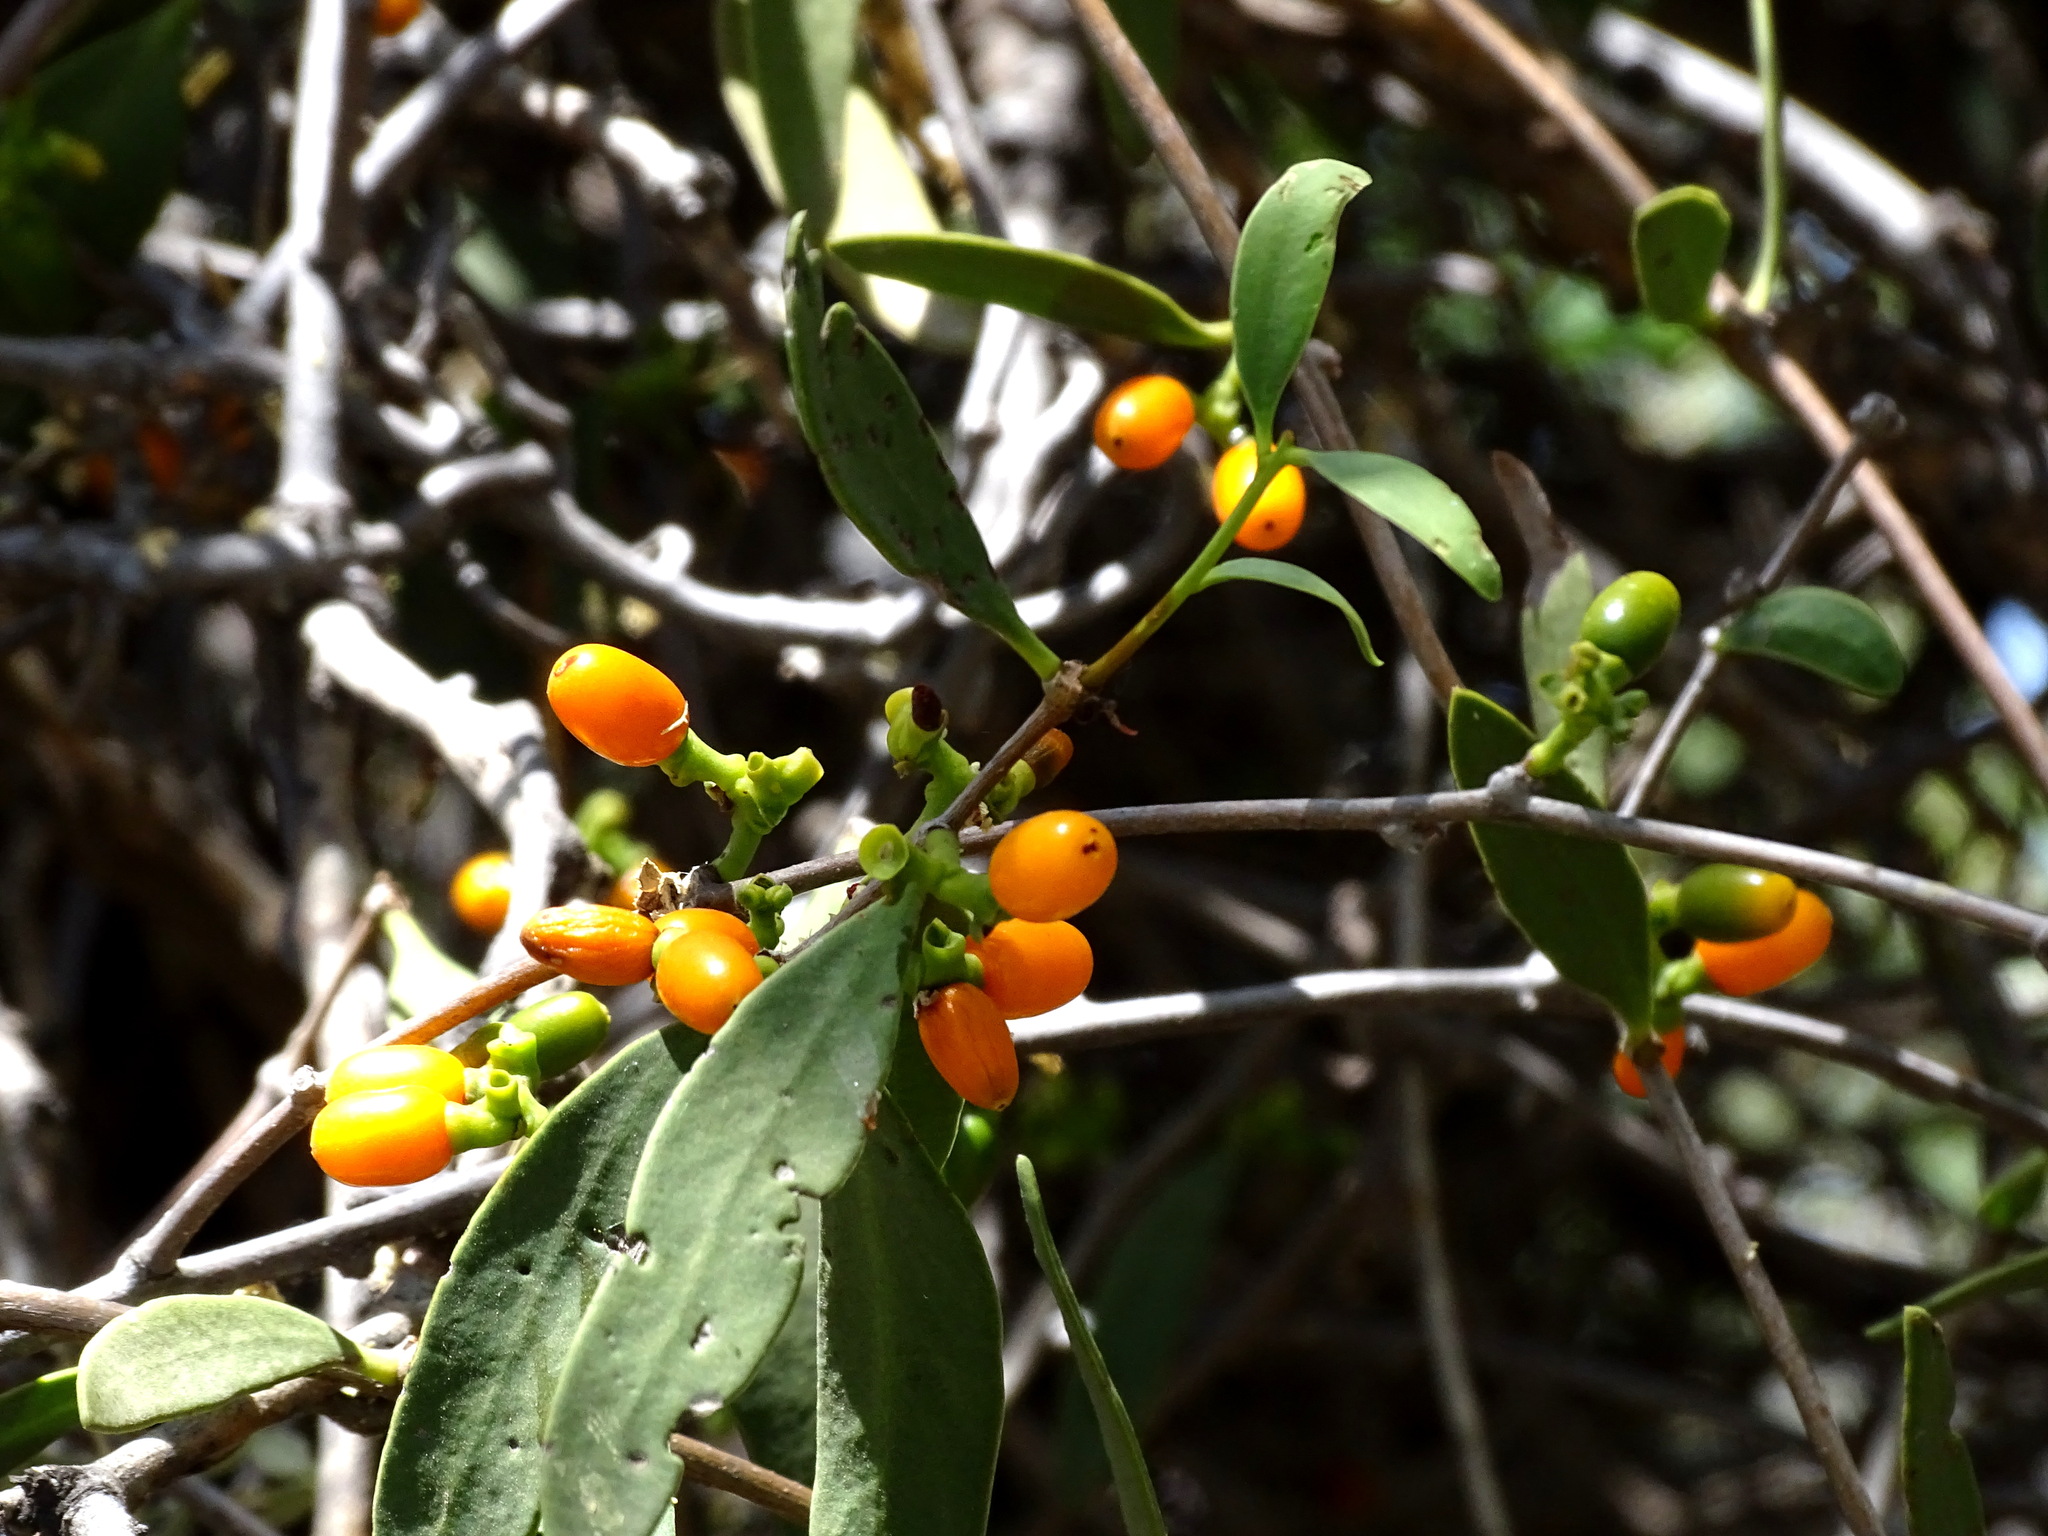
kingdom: Plantae
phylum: Tracheophyta
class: Magnoliopsida
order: Santalales
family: Loranthaceae
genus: Struthanthus
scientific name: Struthanthus palmeri
